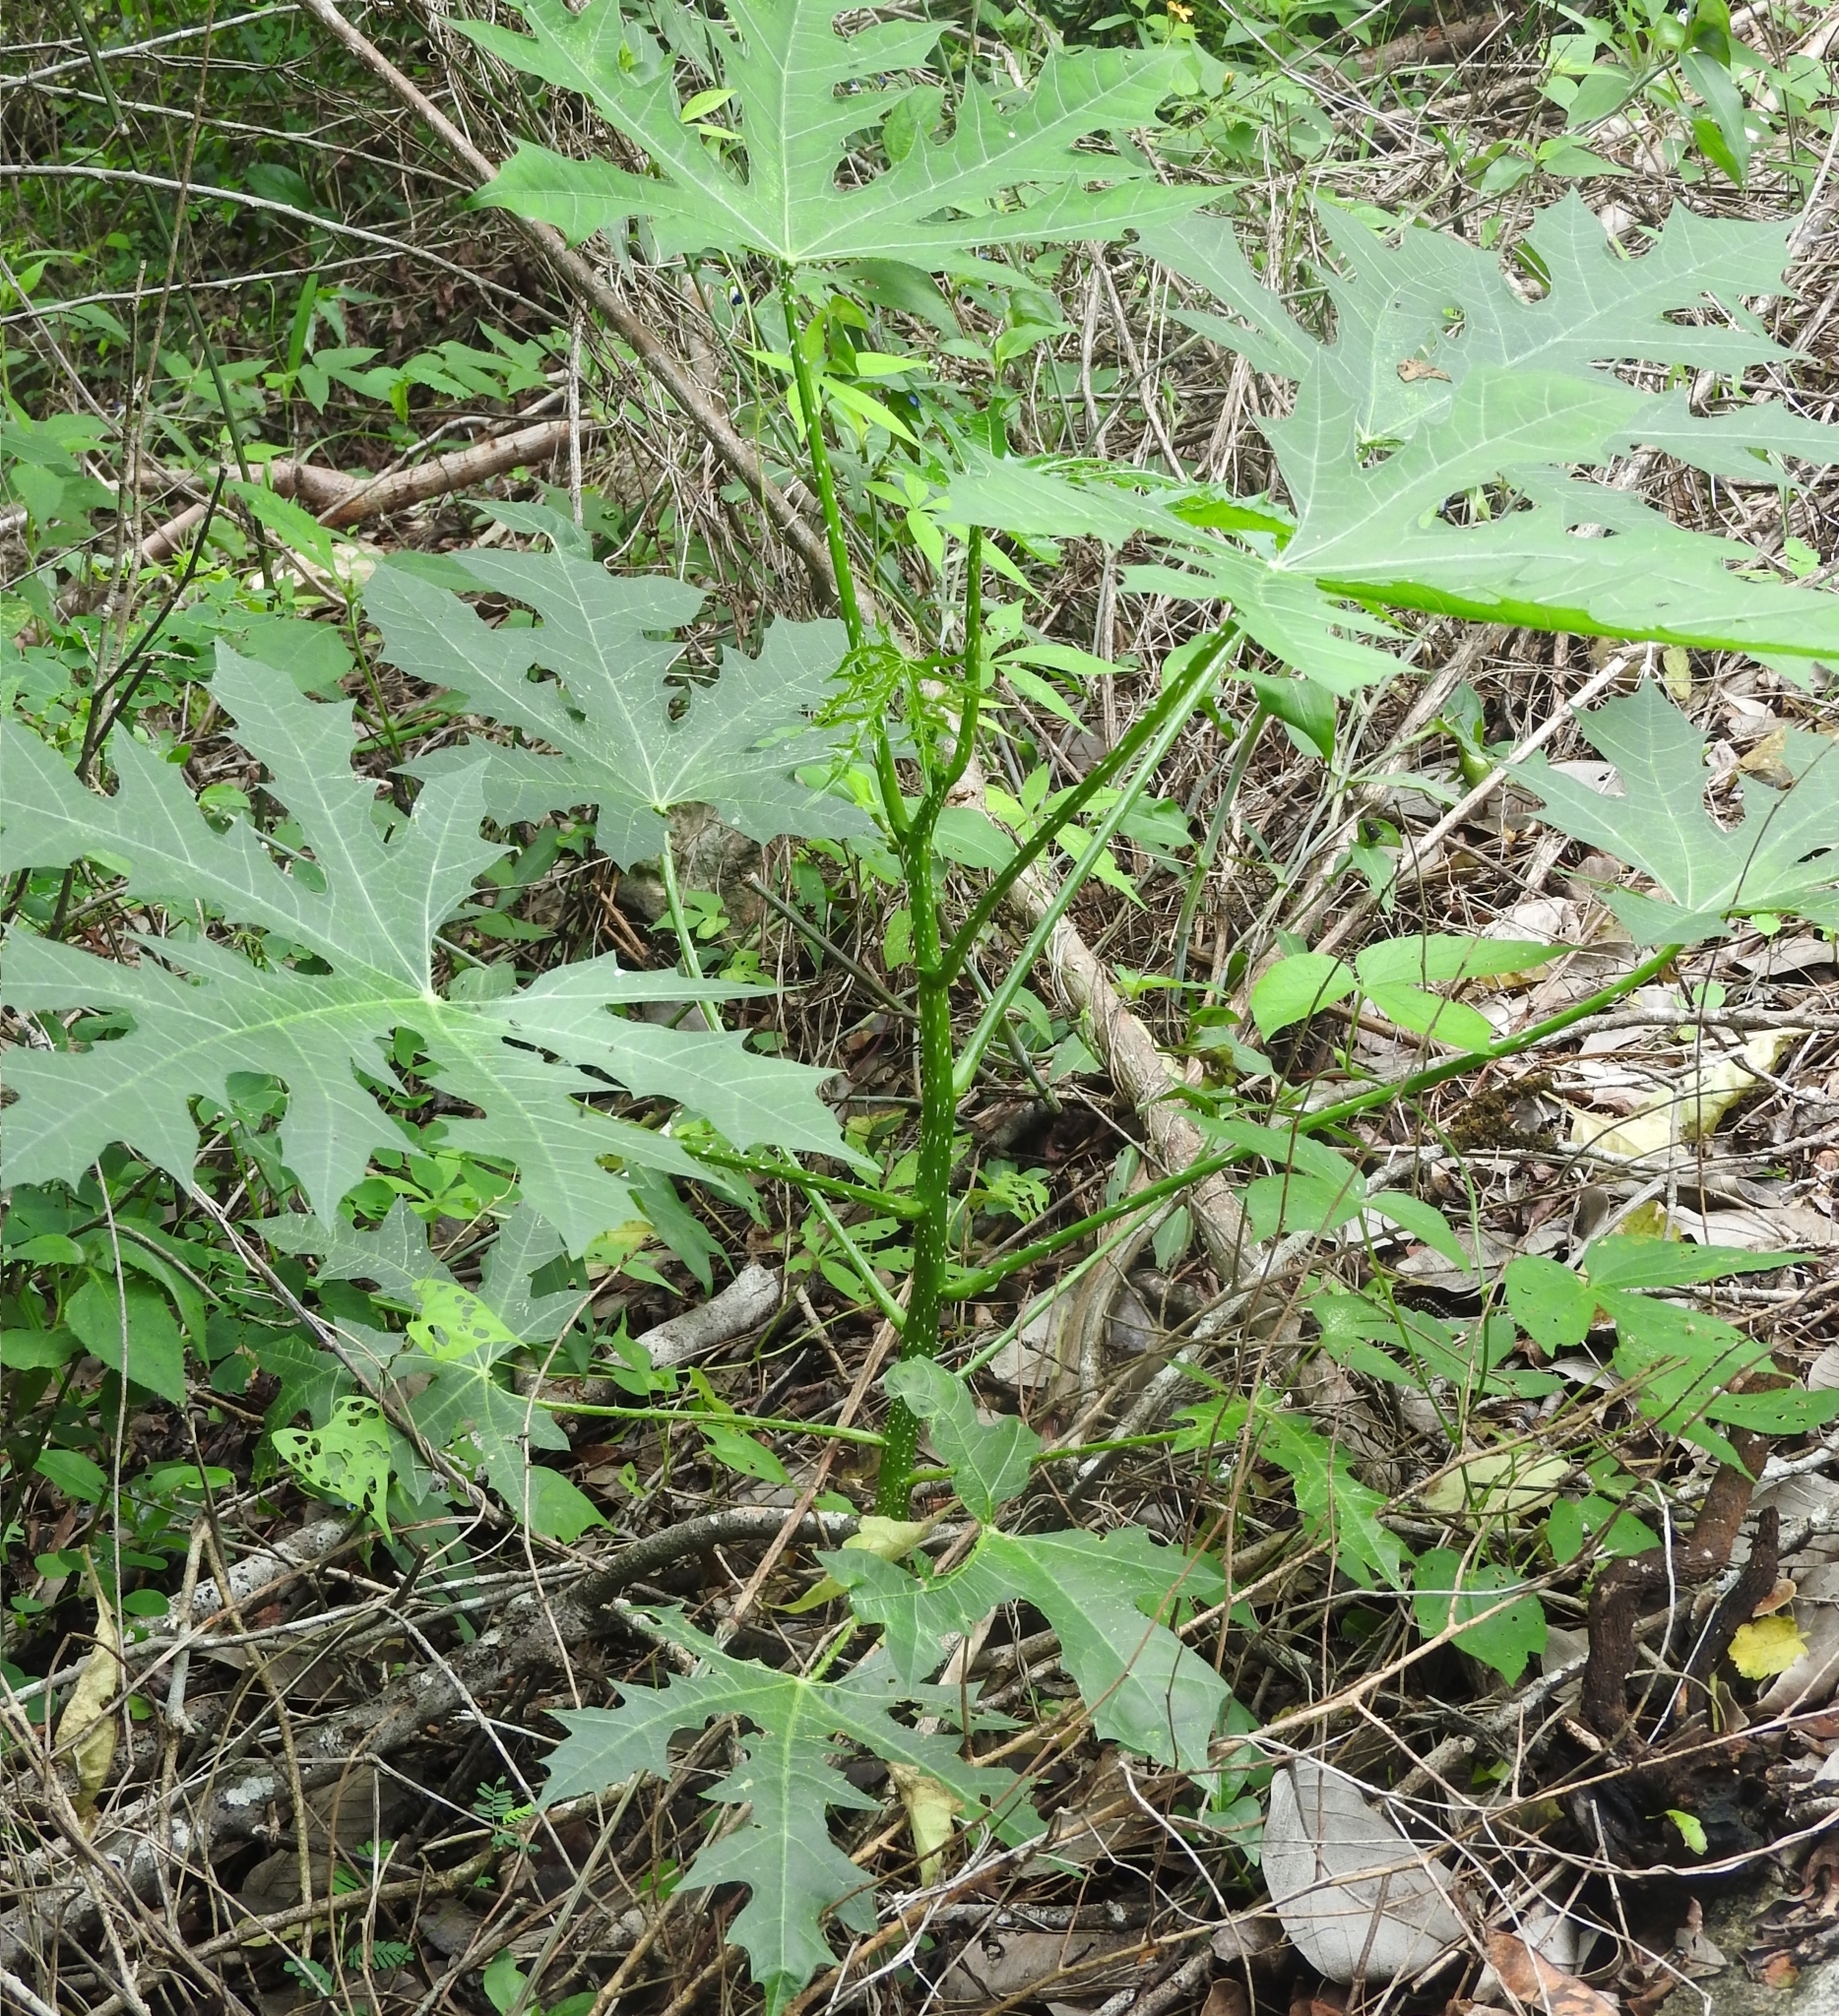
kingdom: Plantae
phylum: Tracheophyta
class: Magnoliopsida
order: Malpighiales
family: Euphorbiaceae
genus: Cnidoscolus
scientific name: Cnidoscolus aconitifolius
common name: Cabbage-star
